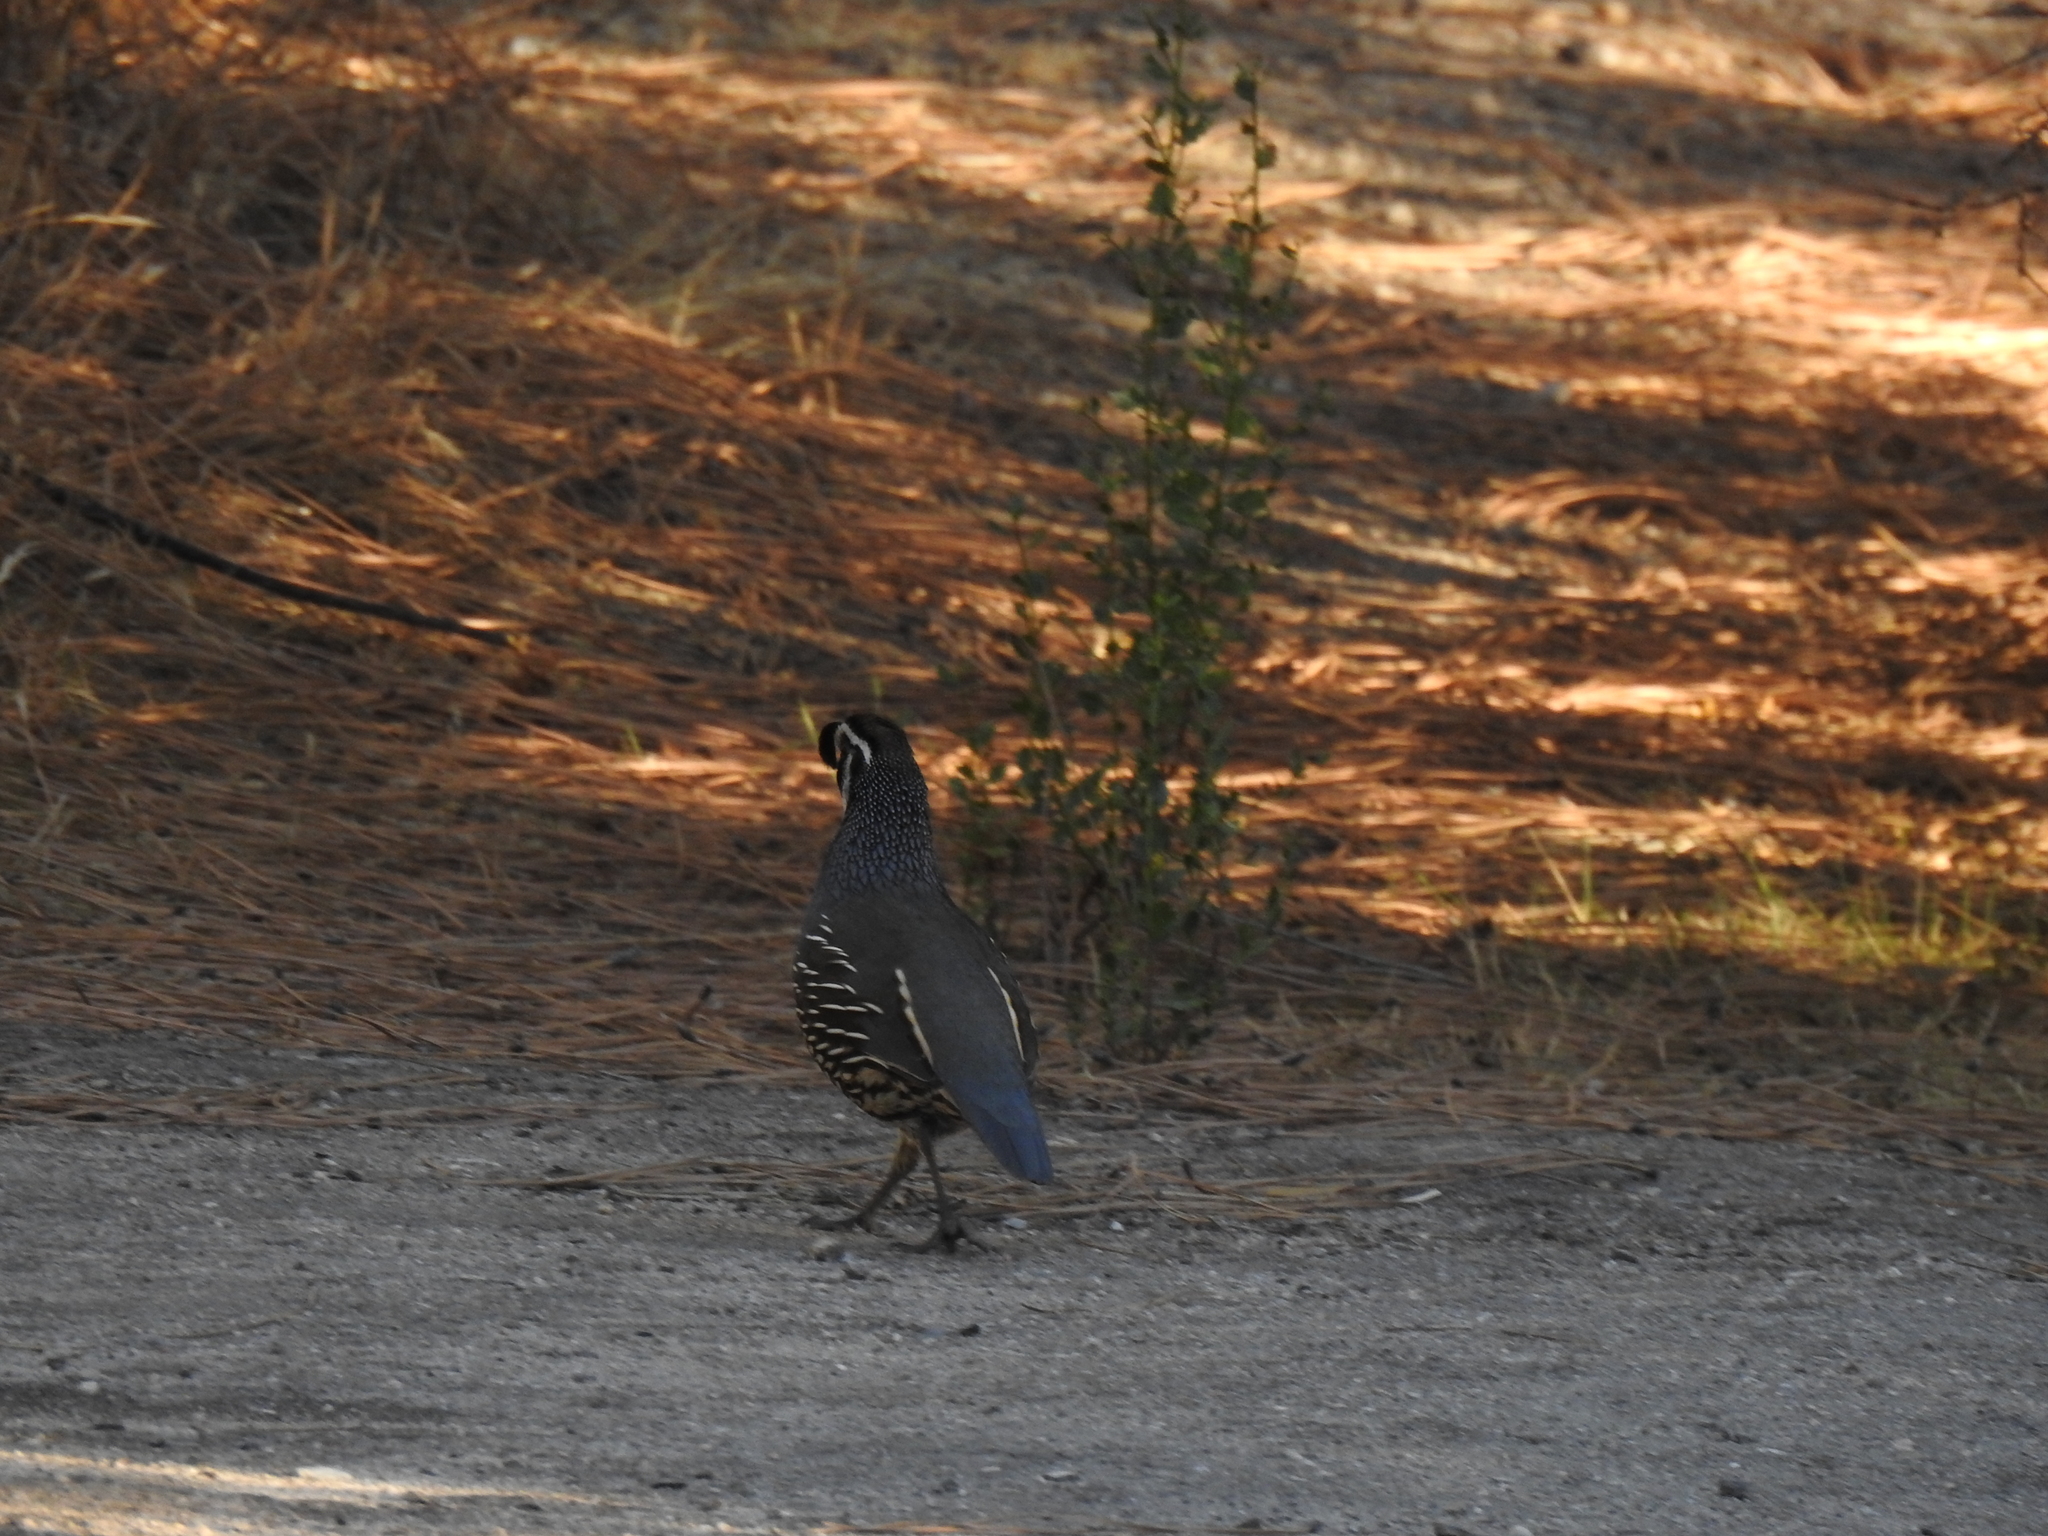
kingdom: Animalia
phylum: Chordata
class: Aves
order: Galliformes
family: Odontophoridae
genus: Callipepla
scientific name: Callipepla californica
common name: California quail
